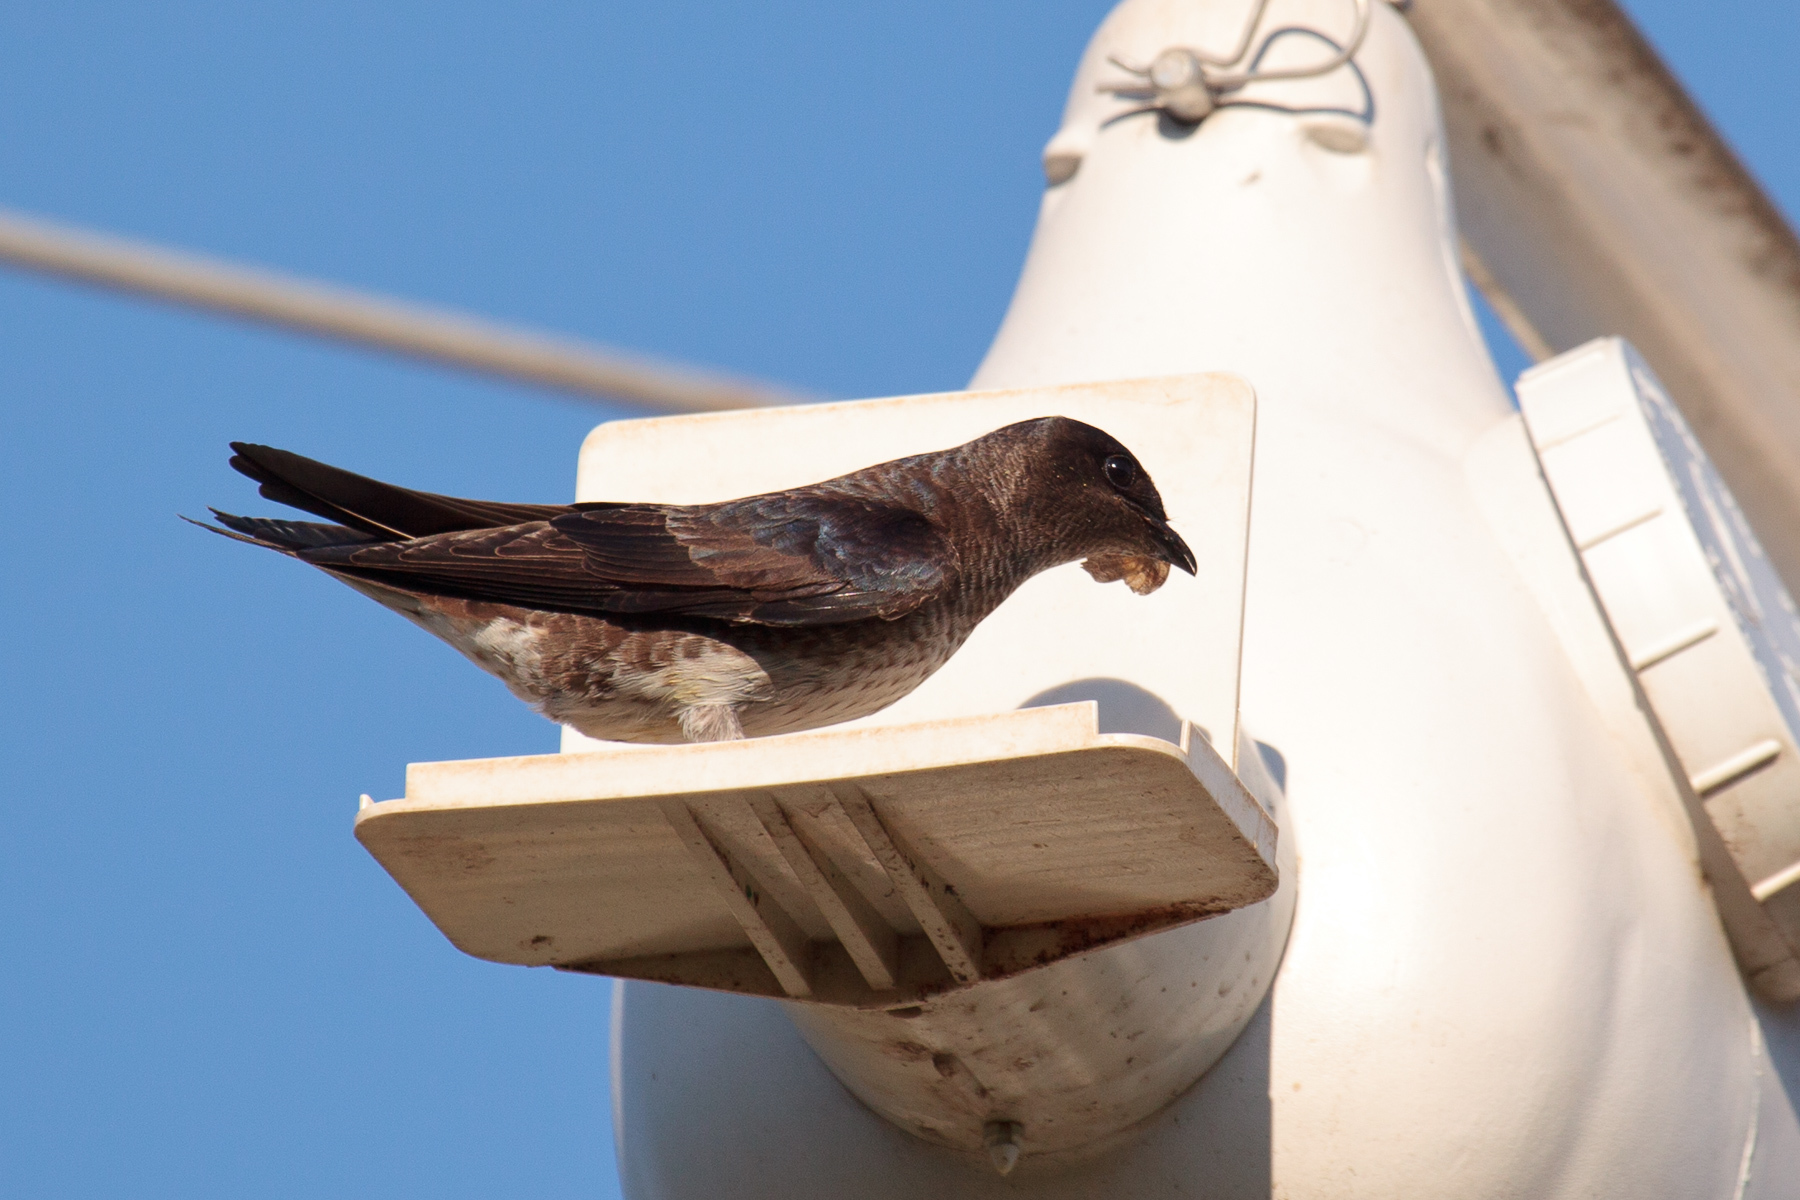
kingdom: Animalia
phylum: Chordata
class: Aves
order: Passeriformes
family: Hirundinidae
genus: Progne
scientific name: Progne subis
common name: Purple martin
